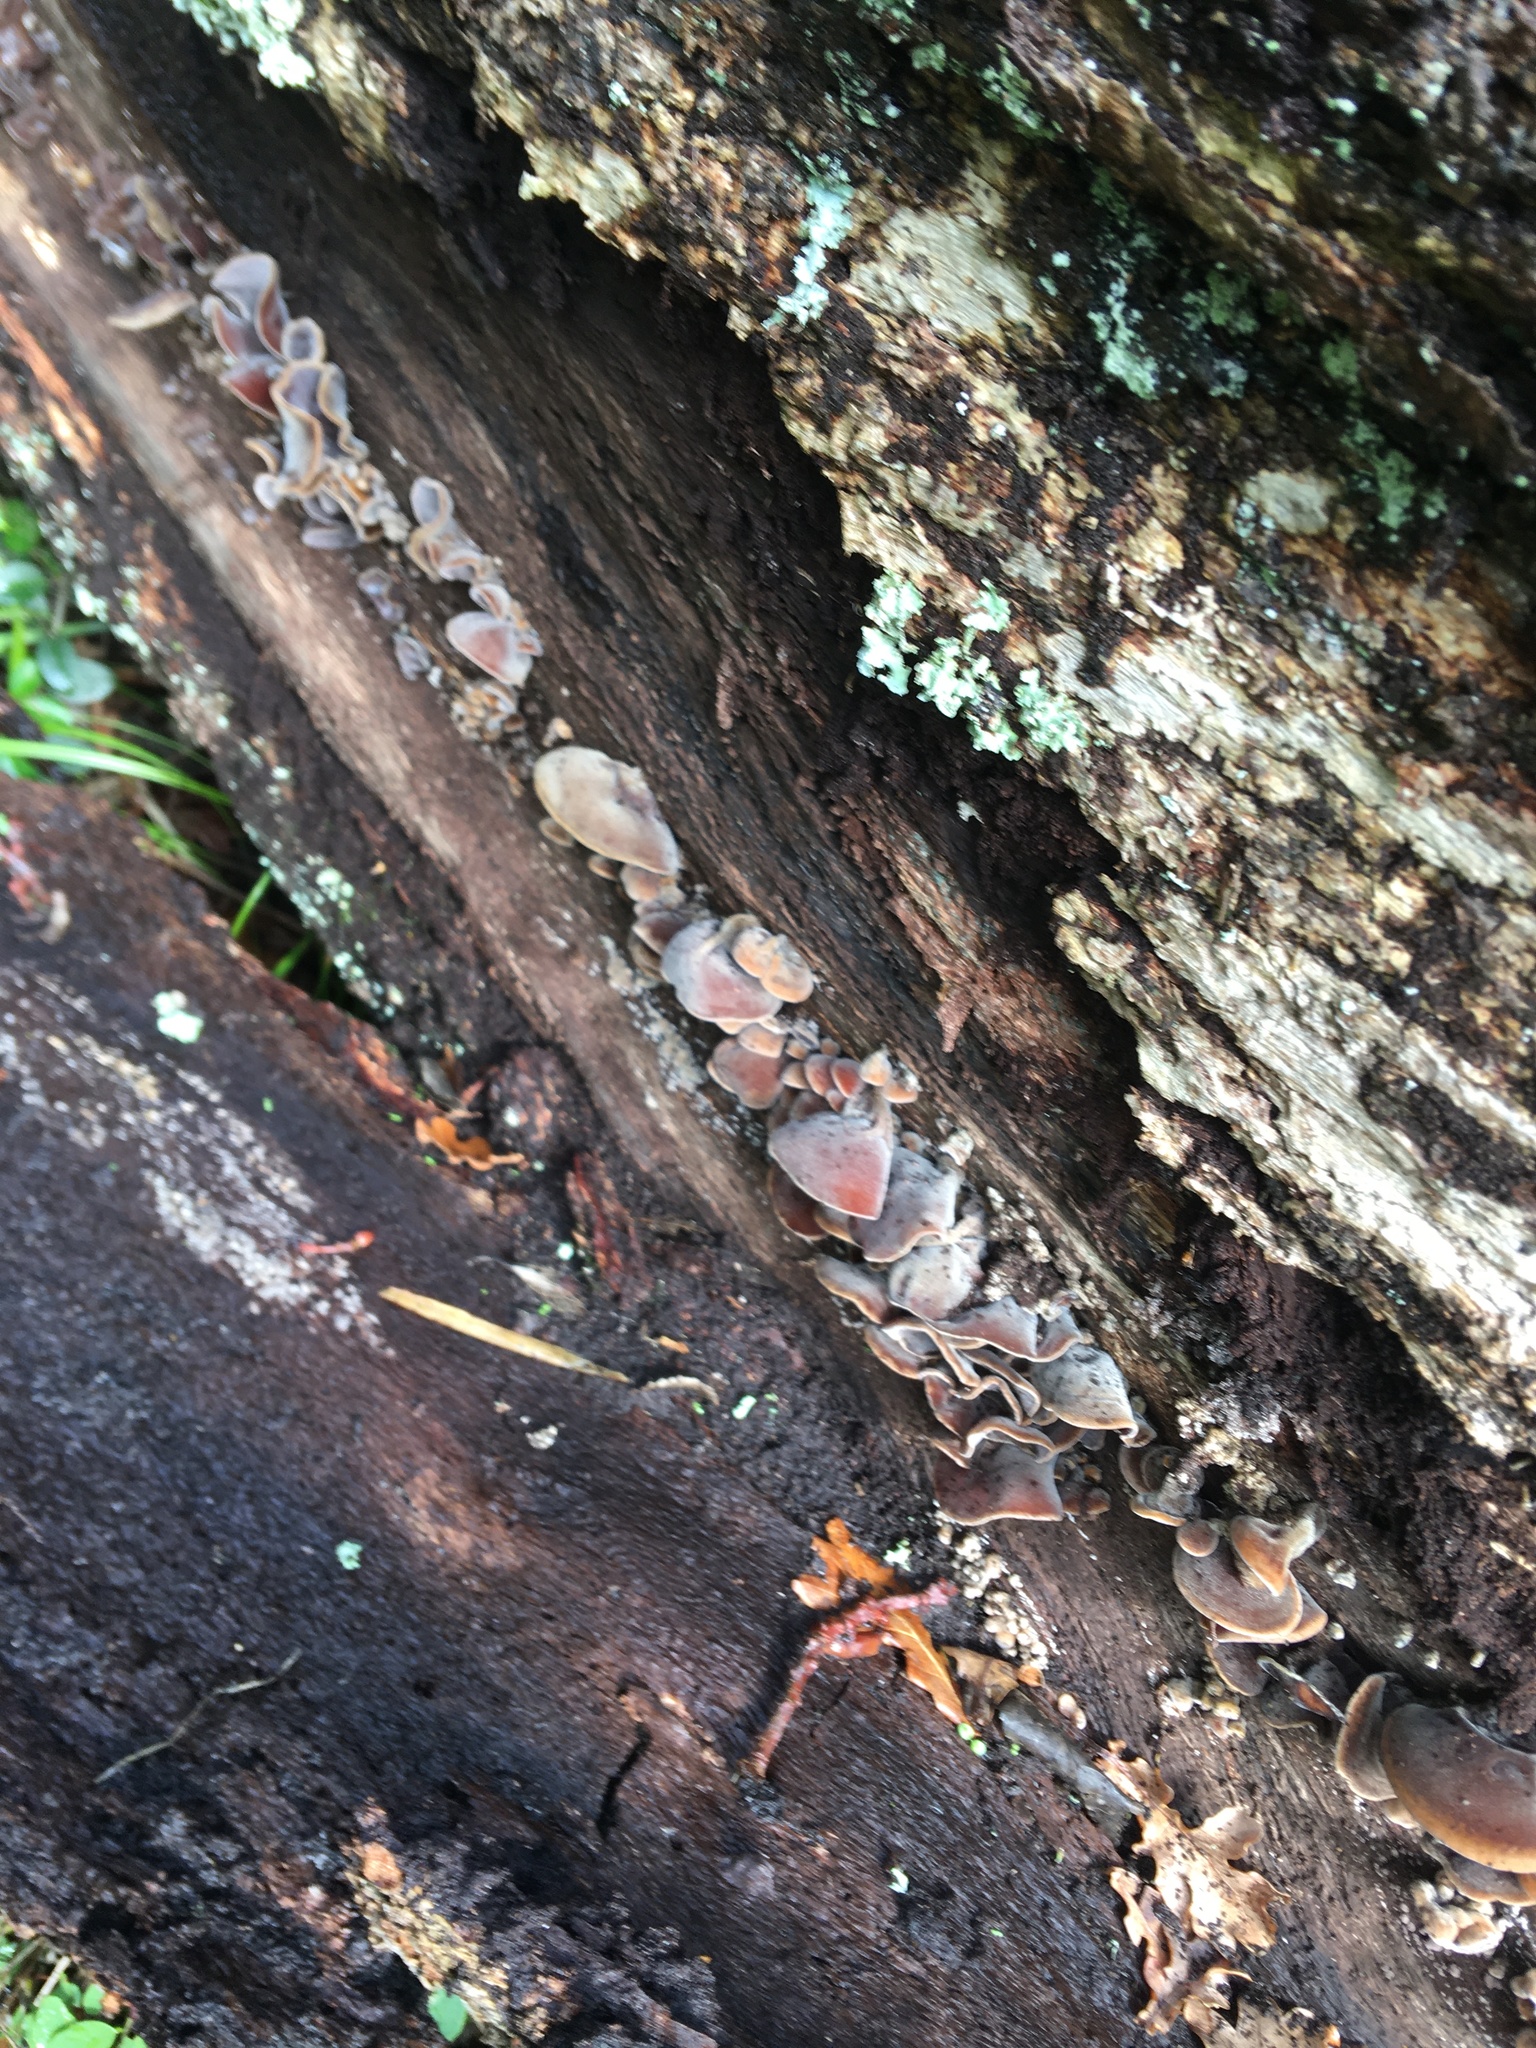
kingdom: Fungi
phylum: Basidiomycota
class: Agaricomycetes
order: Auriculariales
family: Auriculariaceae
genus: Auricularia
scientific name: Auricularia cornea
